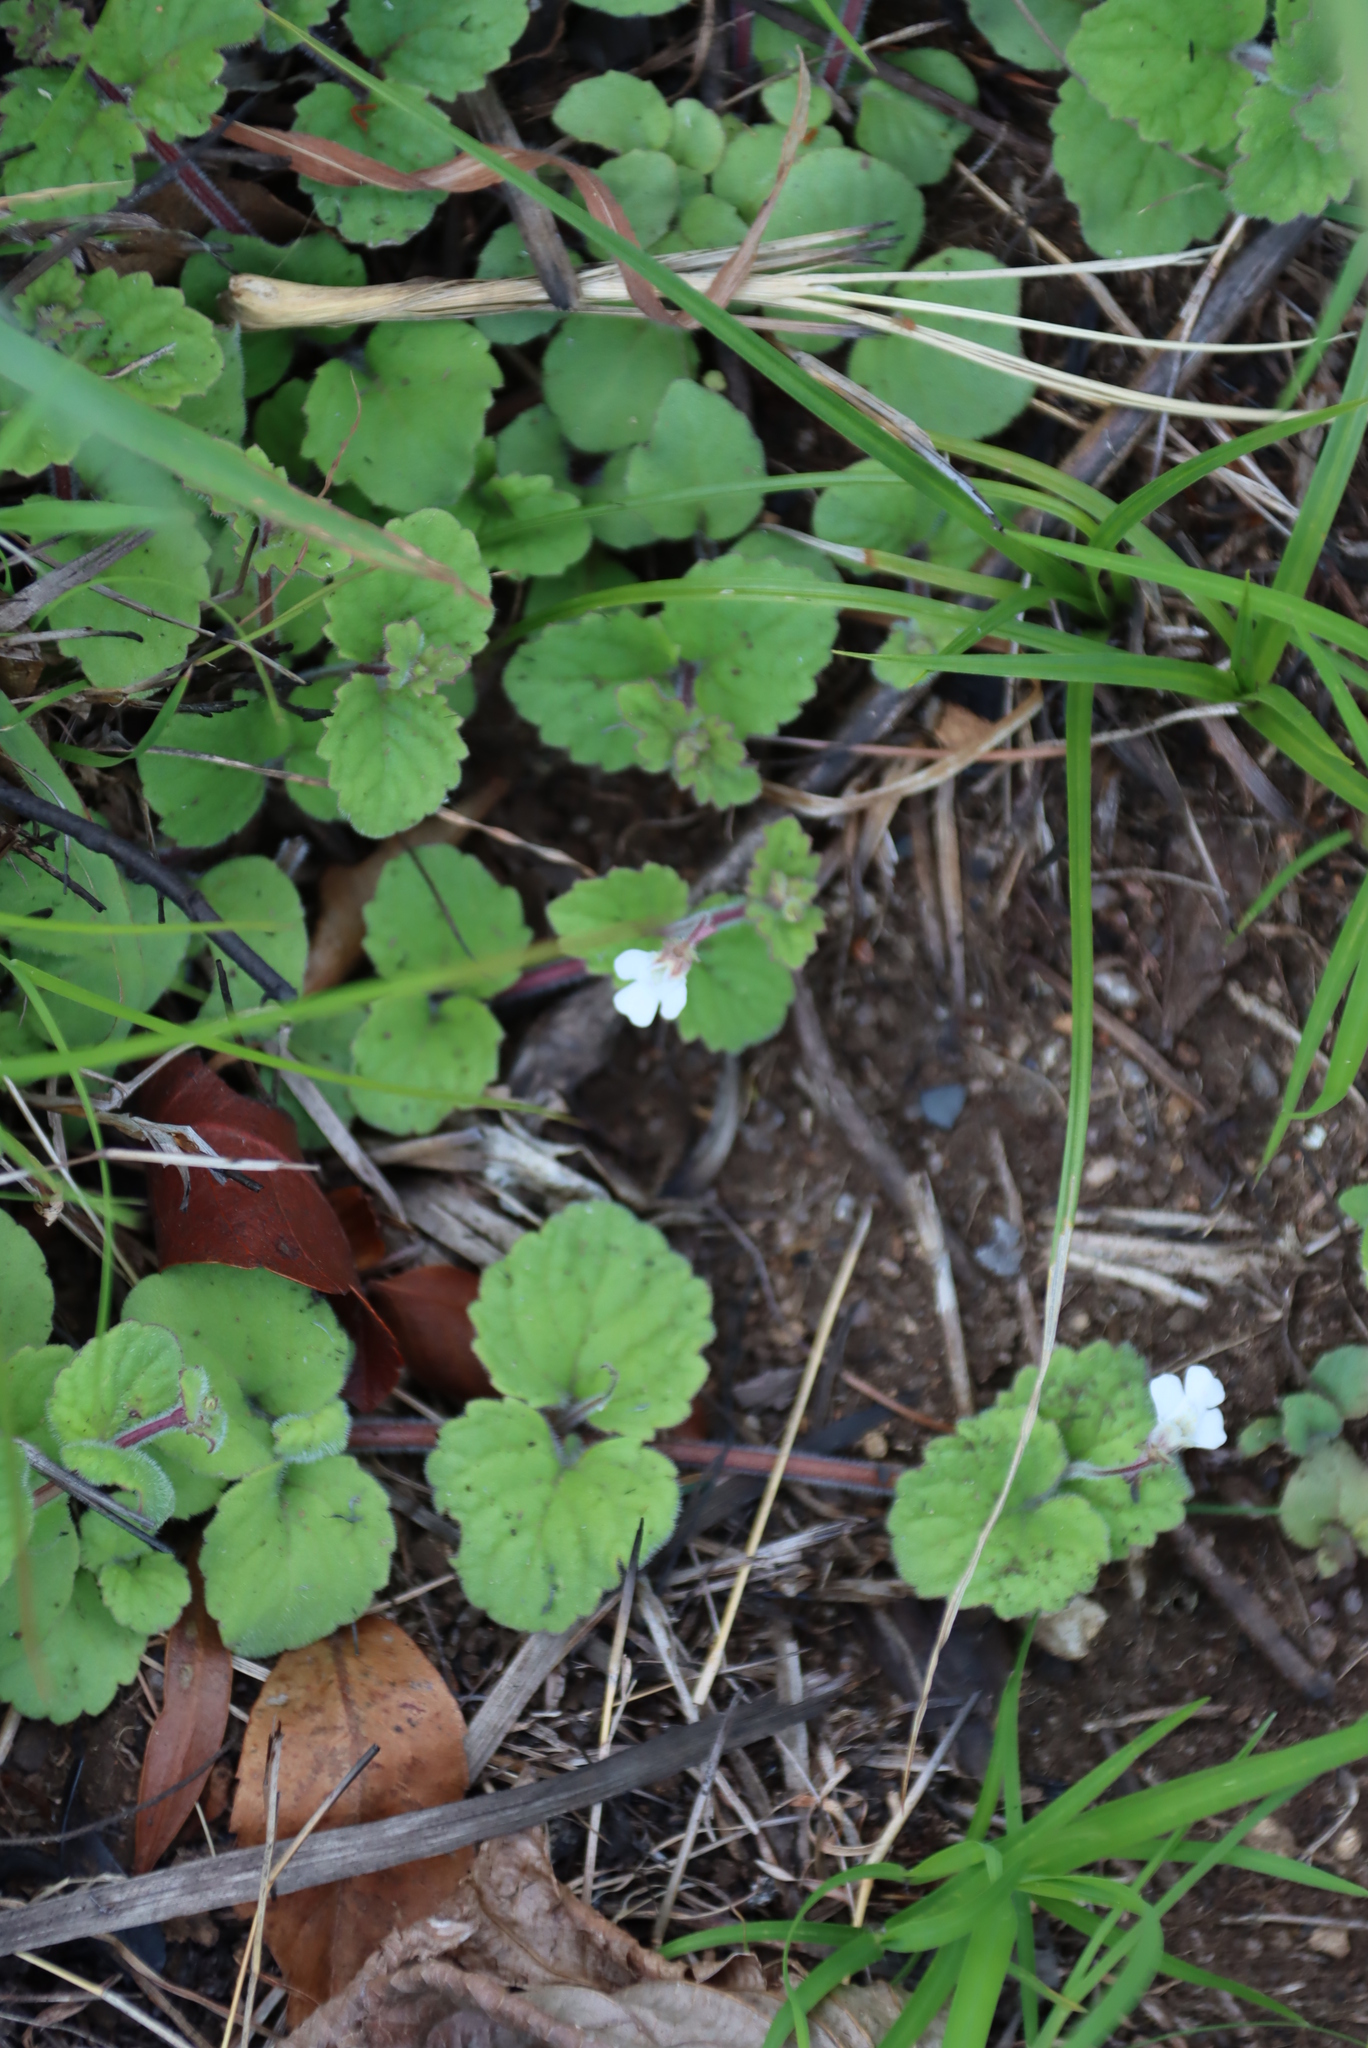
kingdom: Plantae
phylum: Tracheophyta
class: Magnoliopsida
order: Lamiales
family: Scrophulariaceae
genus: Diclis
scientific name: Diclis reptans
